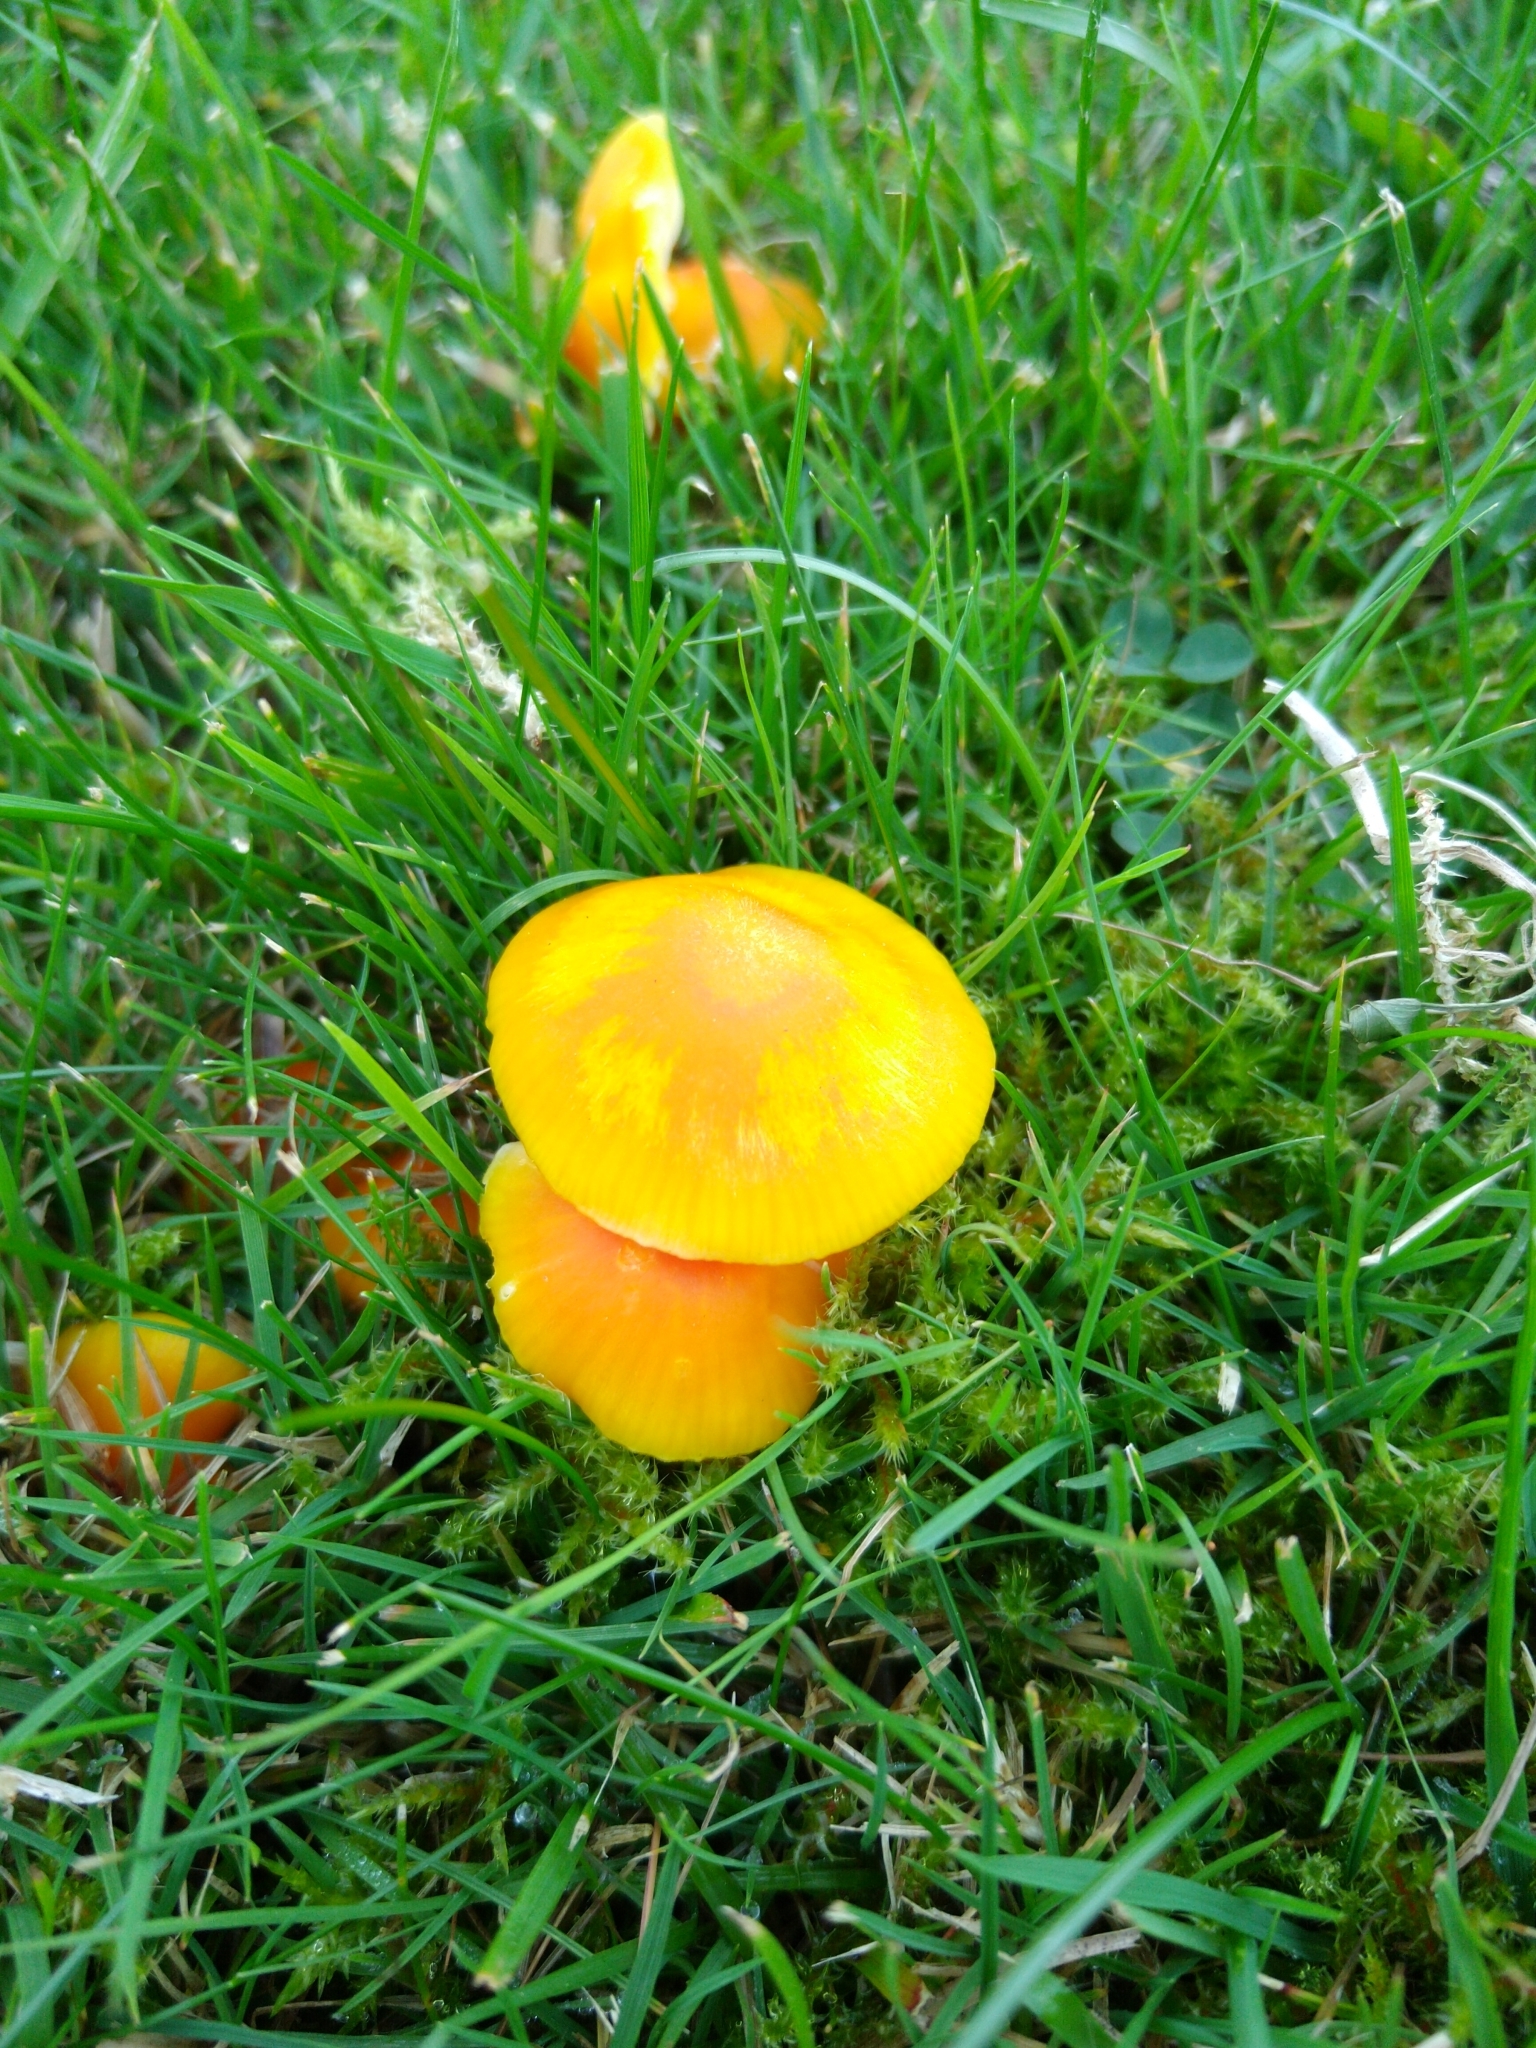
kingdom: Fungi
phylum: Basidiomycota
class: Agaricomycetes
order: Agaricales
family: Hygrophoraceae
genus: Hygrocybe
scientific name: Hygrocybe ceracea
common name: Butter waxcap
